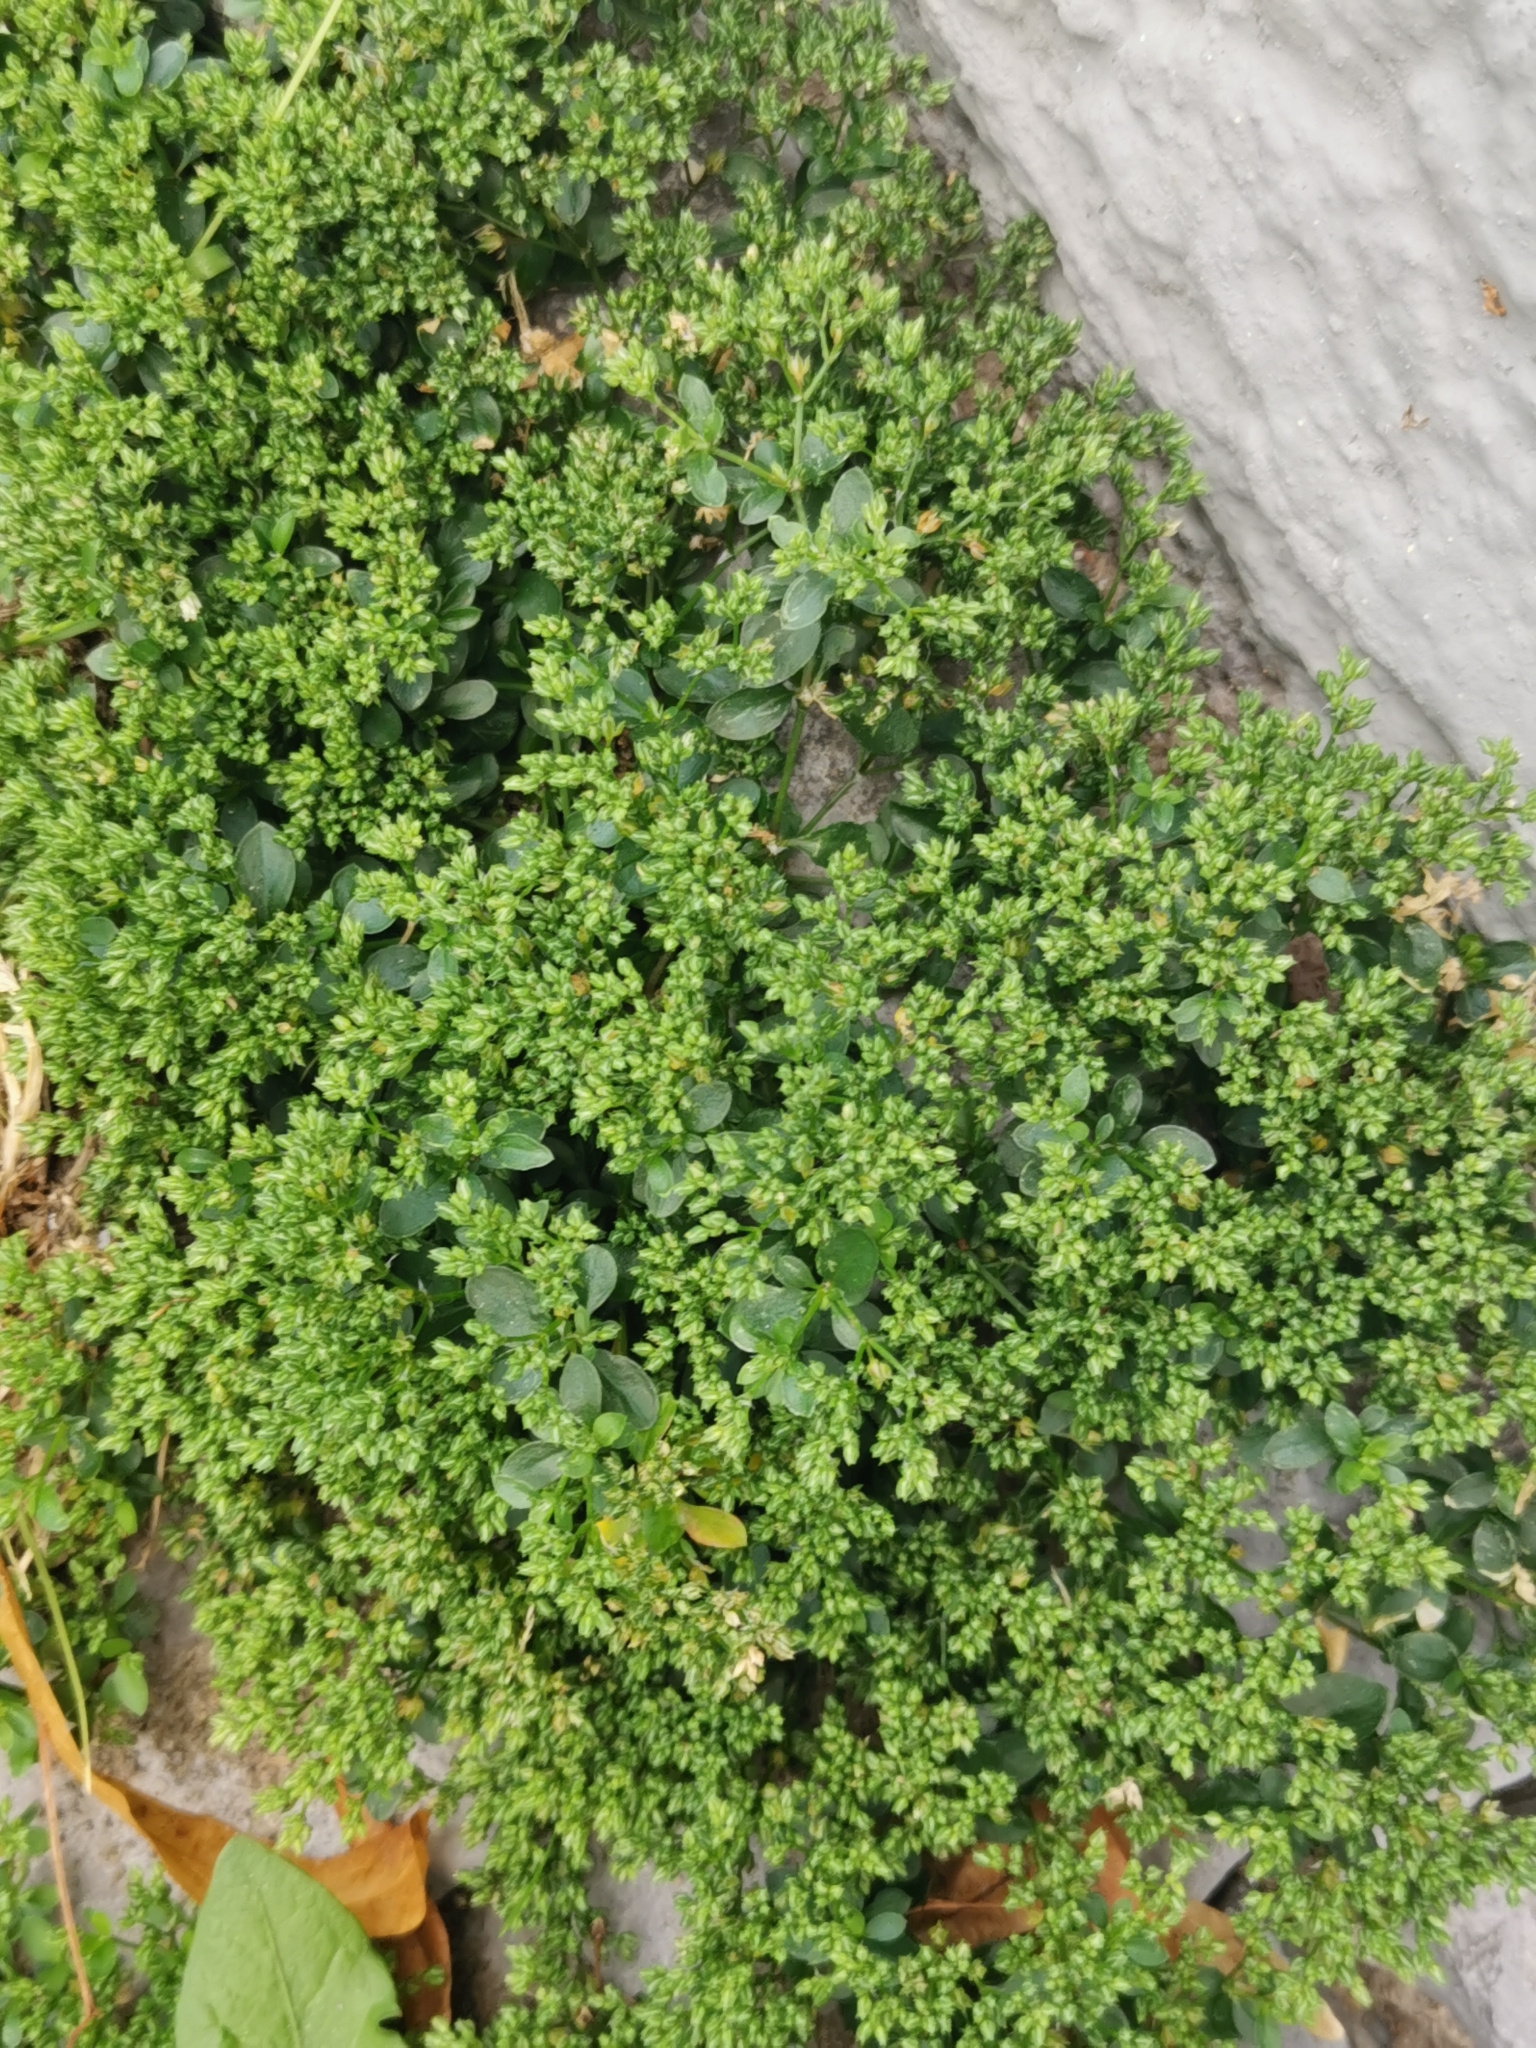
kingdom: Plantae
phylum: Tracheophyta
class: Magnoliopsida
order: Caryophyllales
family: Caryophyllaceae
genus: Polycarpon
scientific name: Polycarpon tetraphyllum
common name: Four-leaved all-seed
